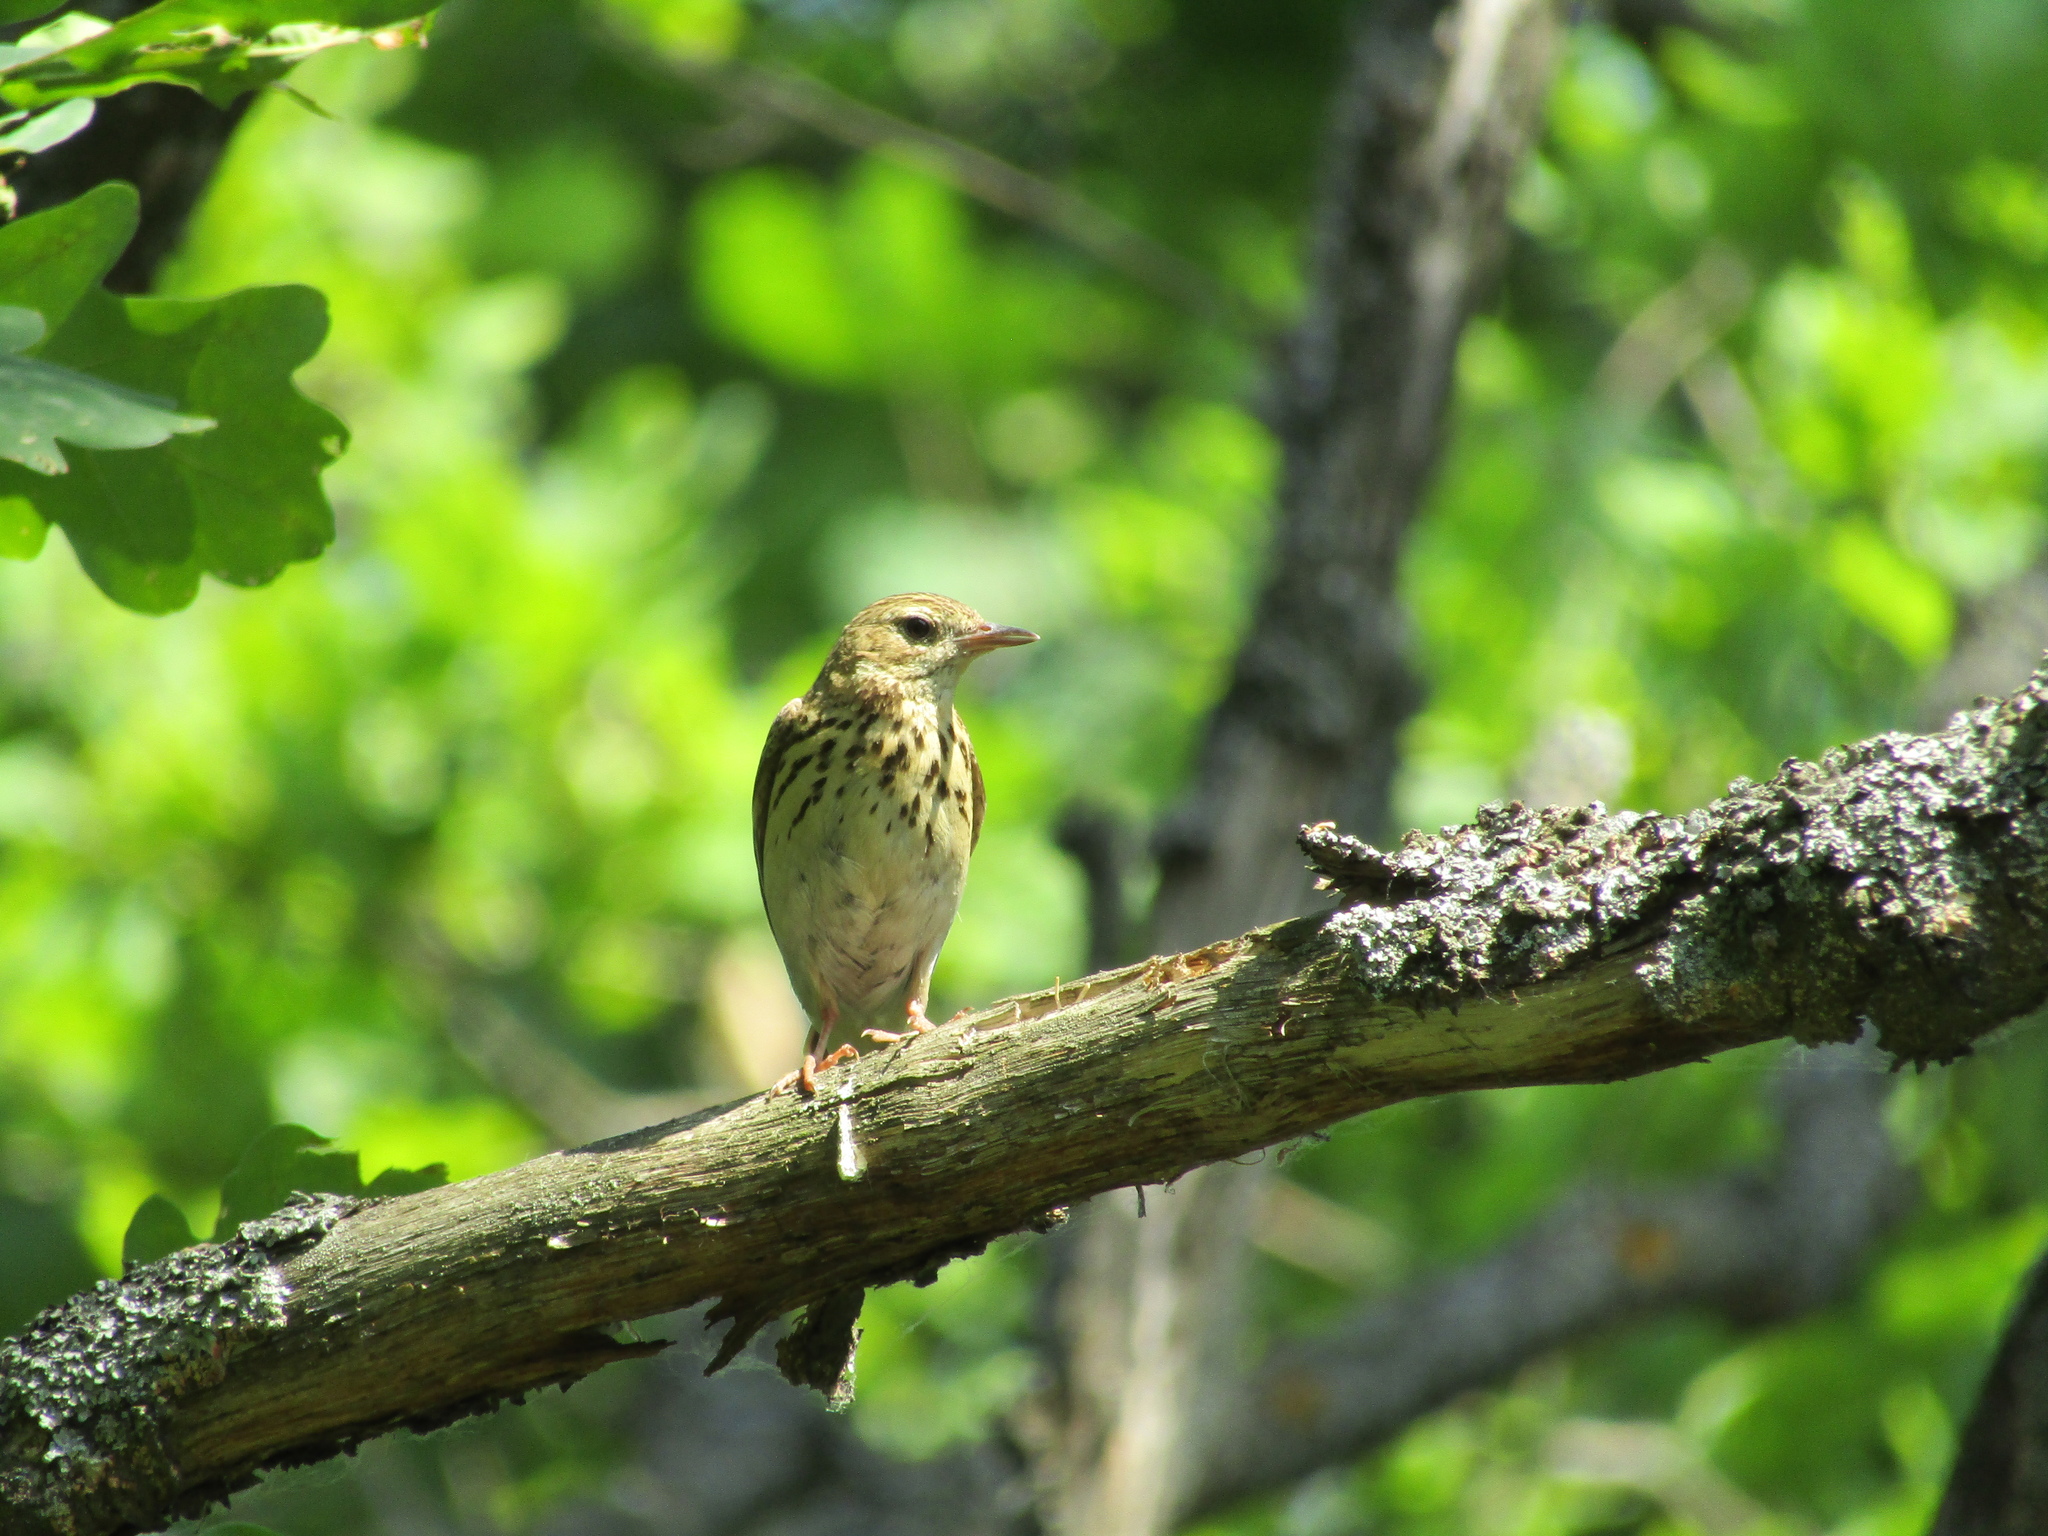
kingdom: Animalia
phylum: Chordata
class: Aves
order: Passeriformes
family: Motacillidae
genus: Anthus
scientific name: Anthus trivialis
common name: Tree pipit
